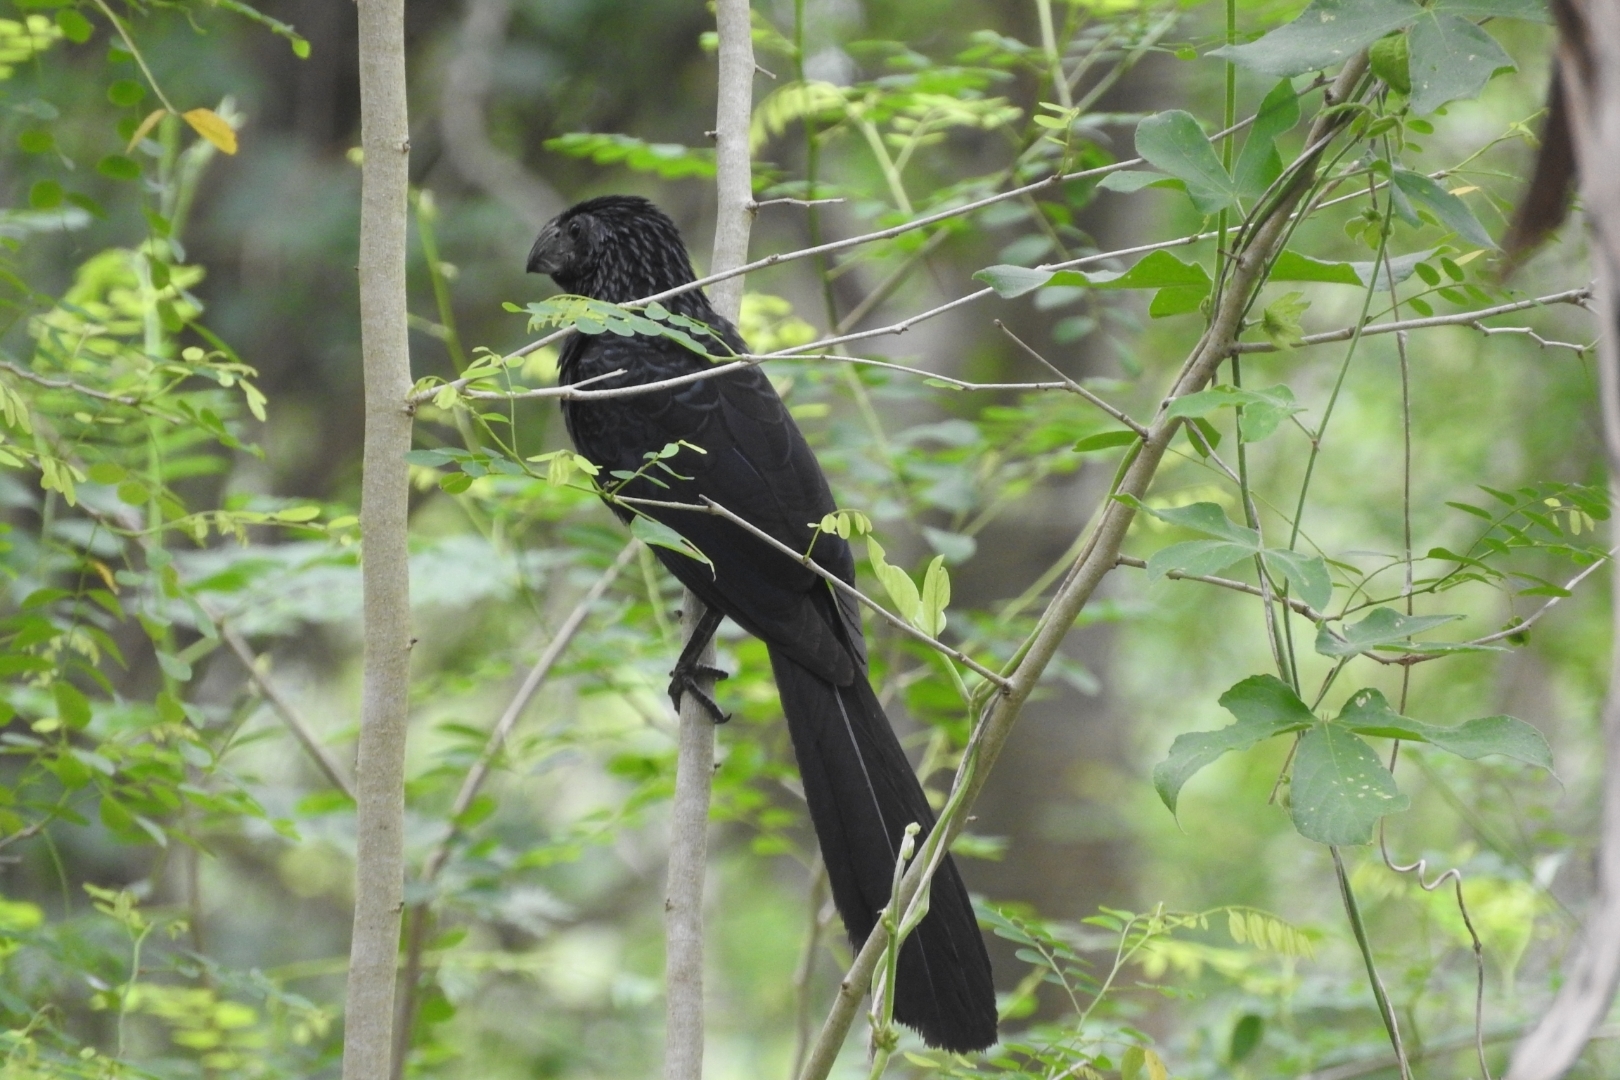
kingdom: Animalia
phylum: Chordata
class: Aves
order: Cuculiformes
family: Cuculidae
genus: Crotophaga
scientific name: Crotophaga sulcirostris
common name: Groove-billed ani
